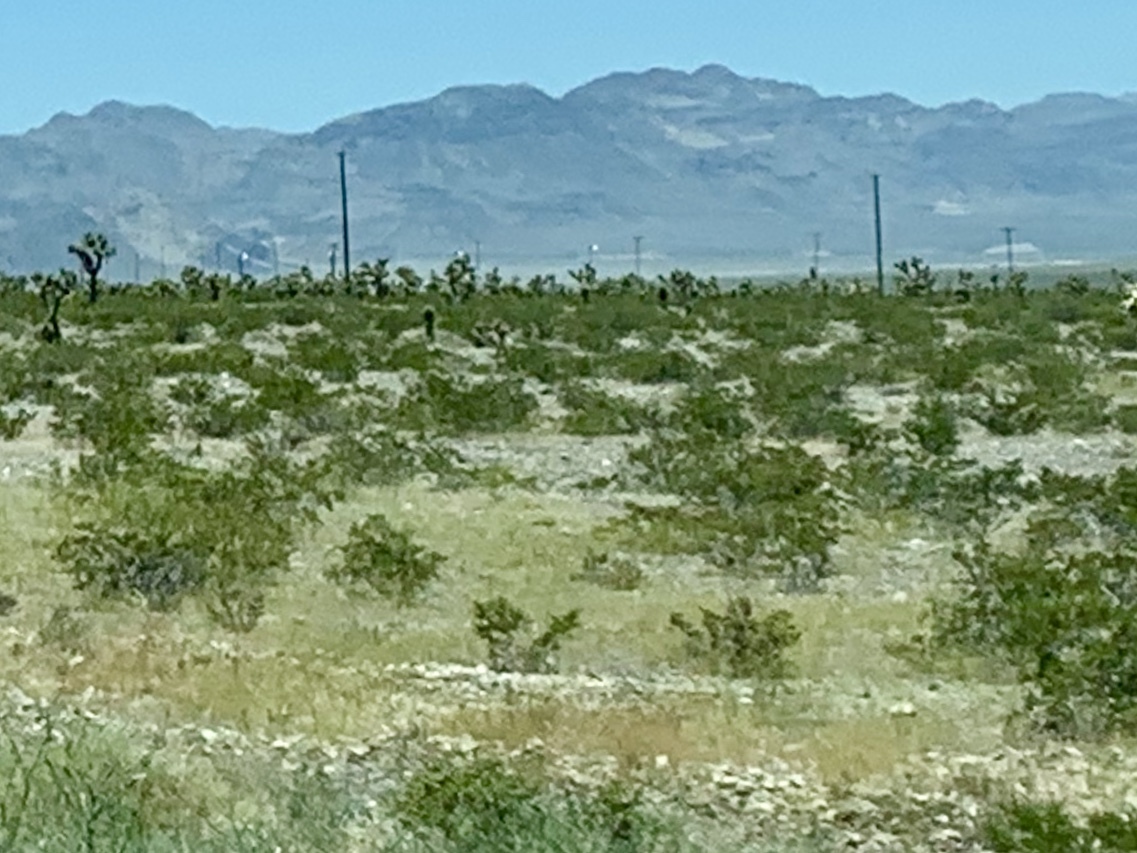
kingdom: Plantae
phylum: Tracheophyta
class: Magnoliopsida
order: Zygophyllales
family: Zygophyllaceae
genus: Larrea
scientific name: Larrea tridentata
